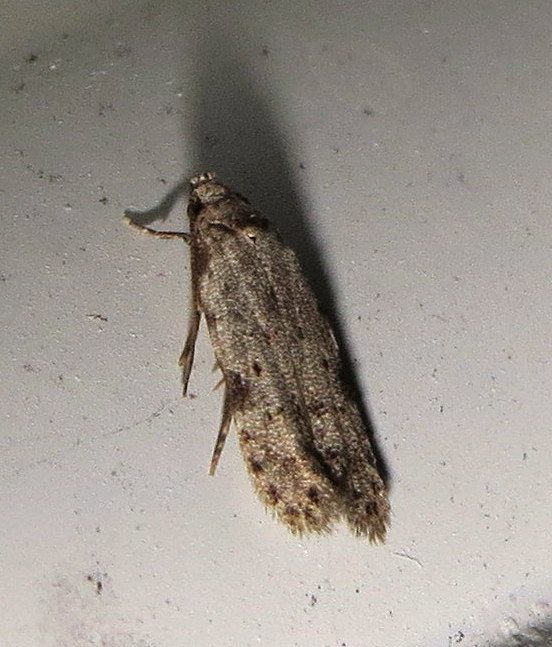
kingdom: Animalia
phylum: Arthropoda
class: Insecta
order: Lepidoptera
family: Autostichidae
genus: Taygete
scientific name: Taygete attributella
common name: Triangle-marked twirler moth
